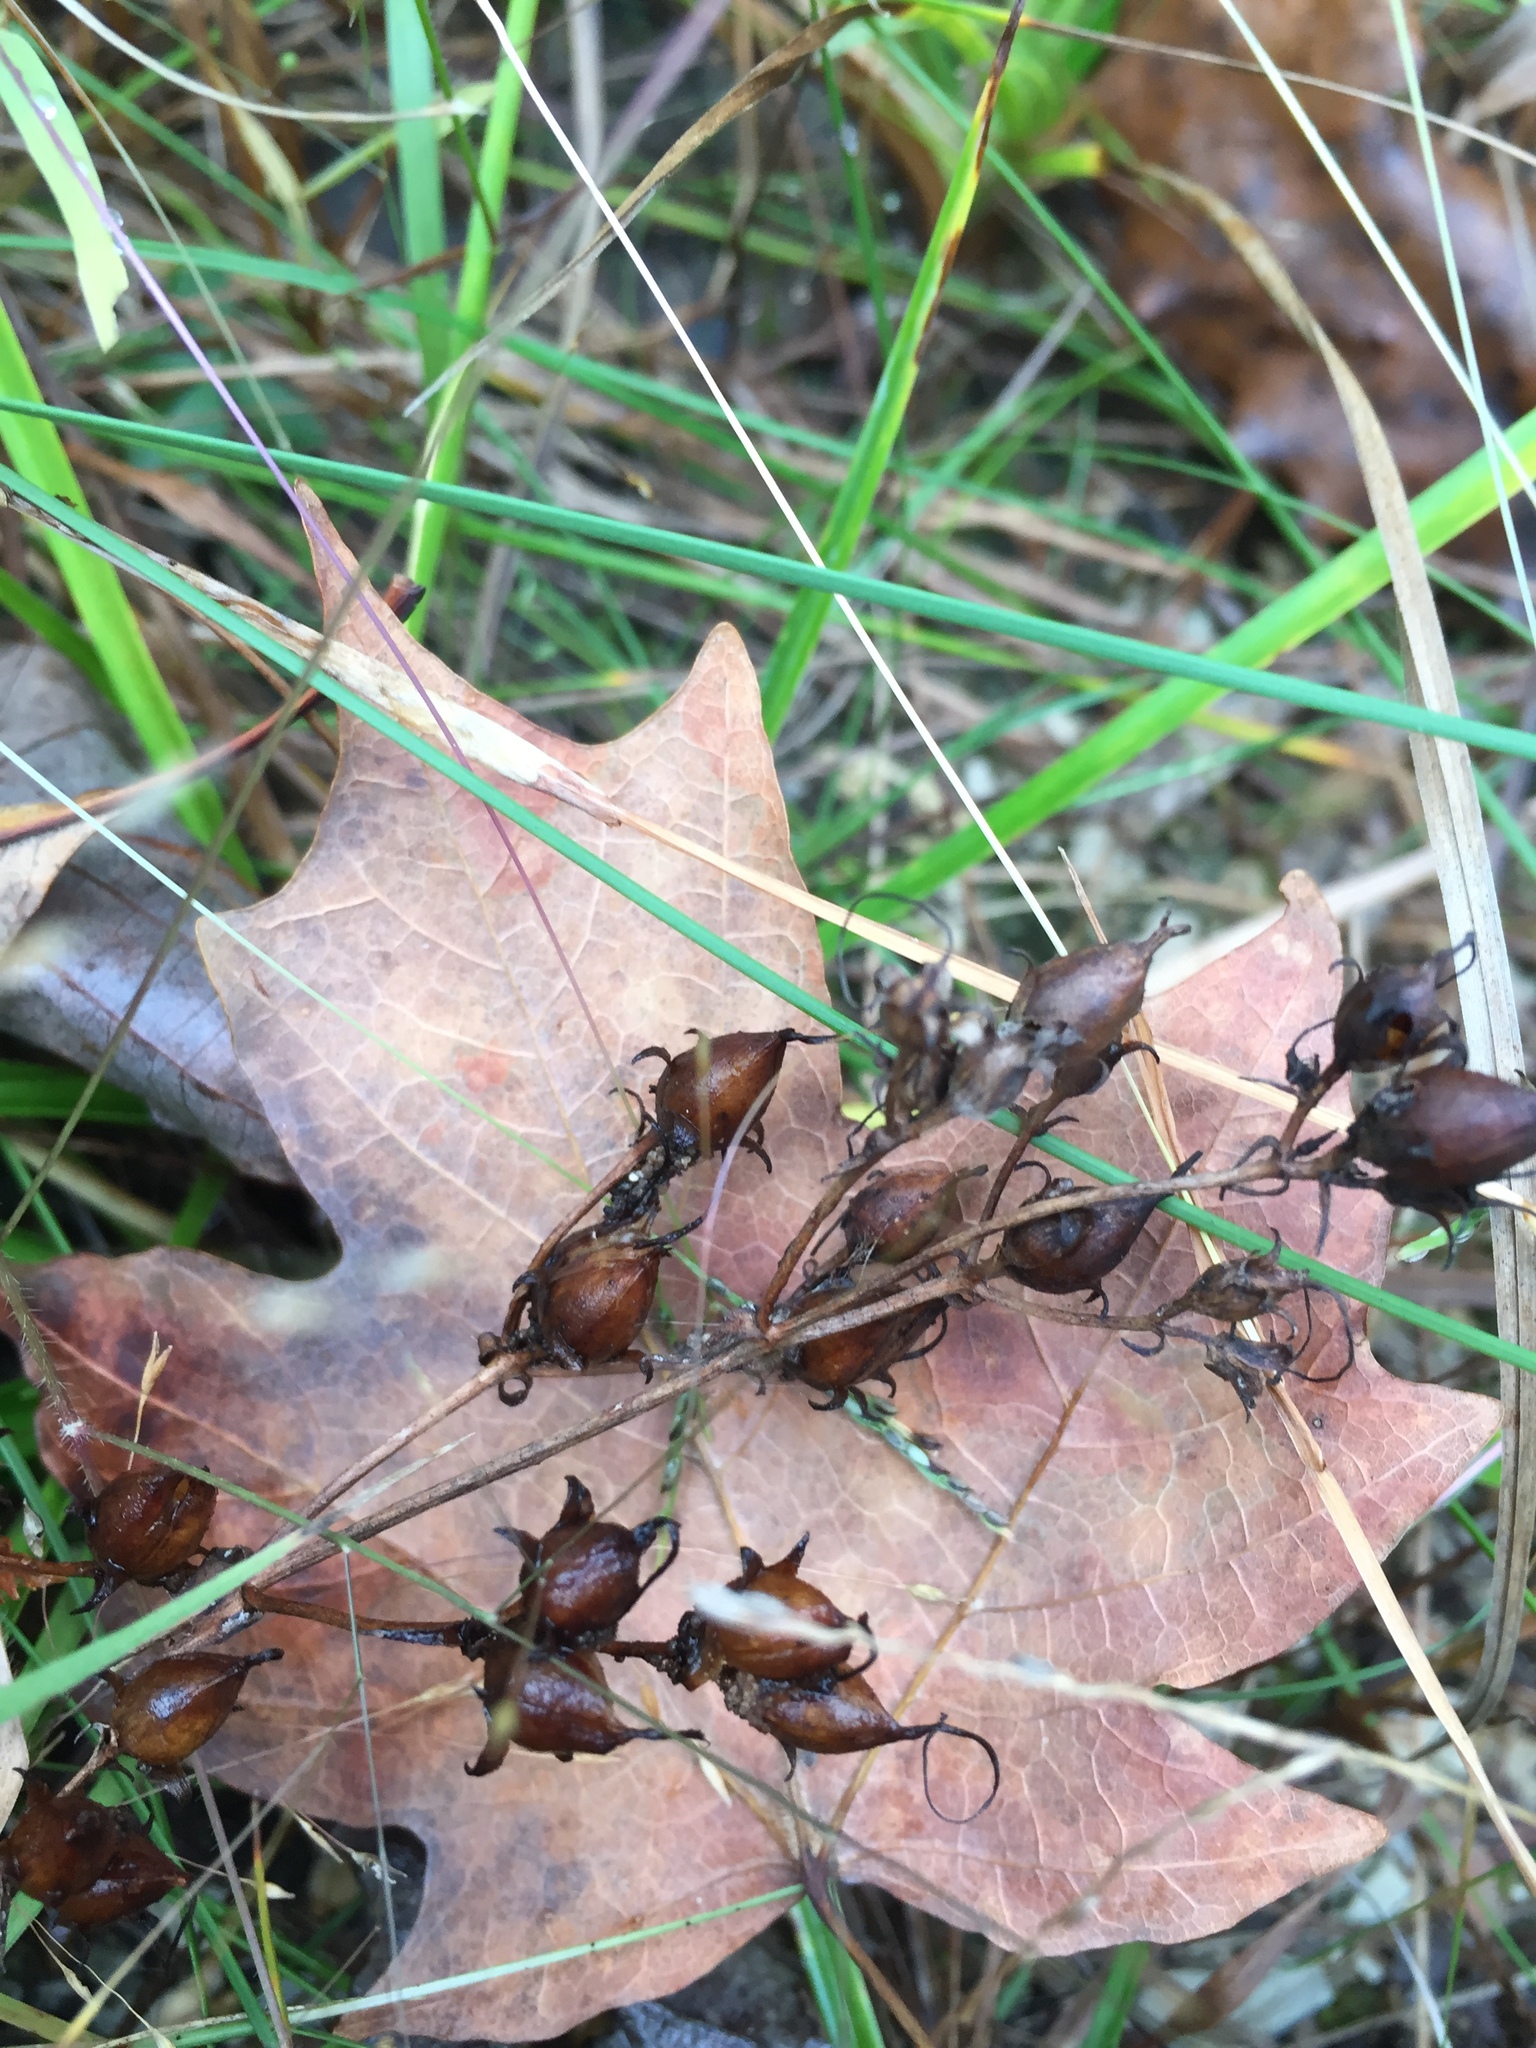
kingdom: Plantae
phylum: Tracheophyta
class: Magnoliopsida
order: Lamiales
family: Plantaginaceae
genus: Penstemon
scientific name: Penstemon digitalis
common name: Foxglove beardtongue
